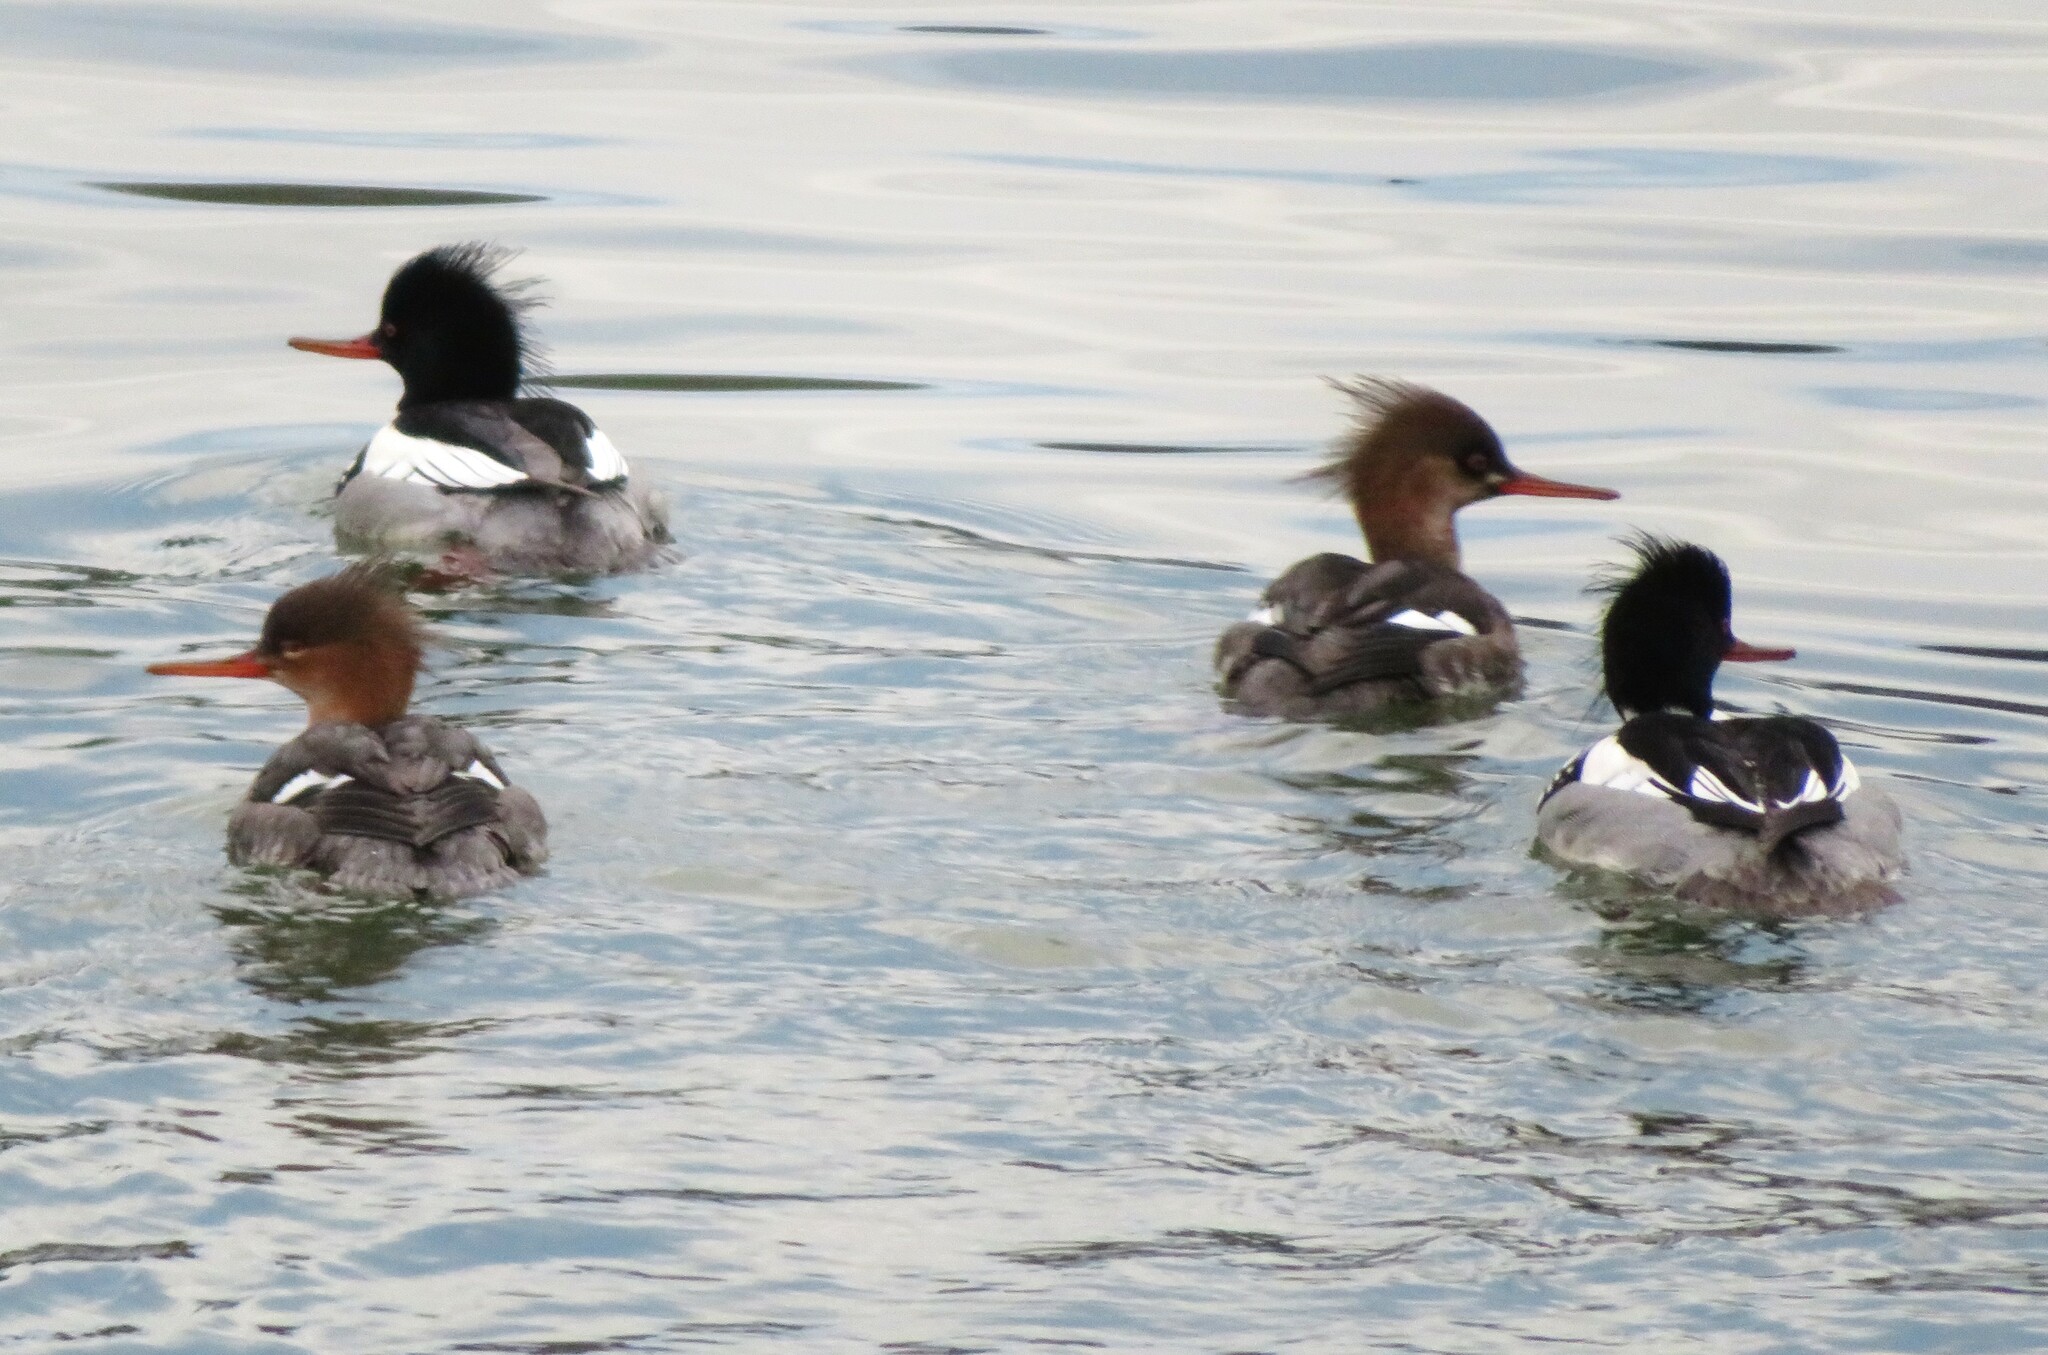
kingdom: Animalia
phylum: Chordata
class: Aves
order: Anseriformes
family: Anatidae
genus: Mergus
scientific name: Mergus serrator
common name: Red-breasted merganser
